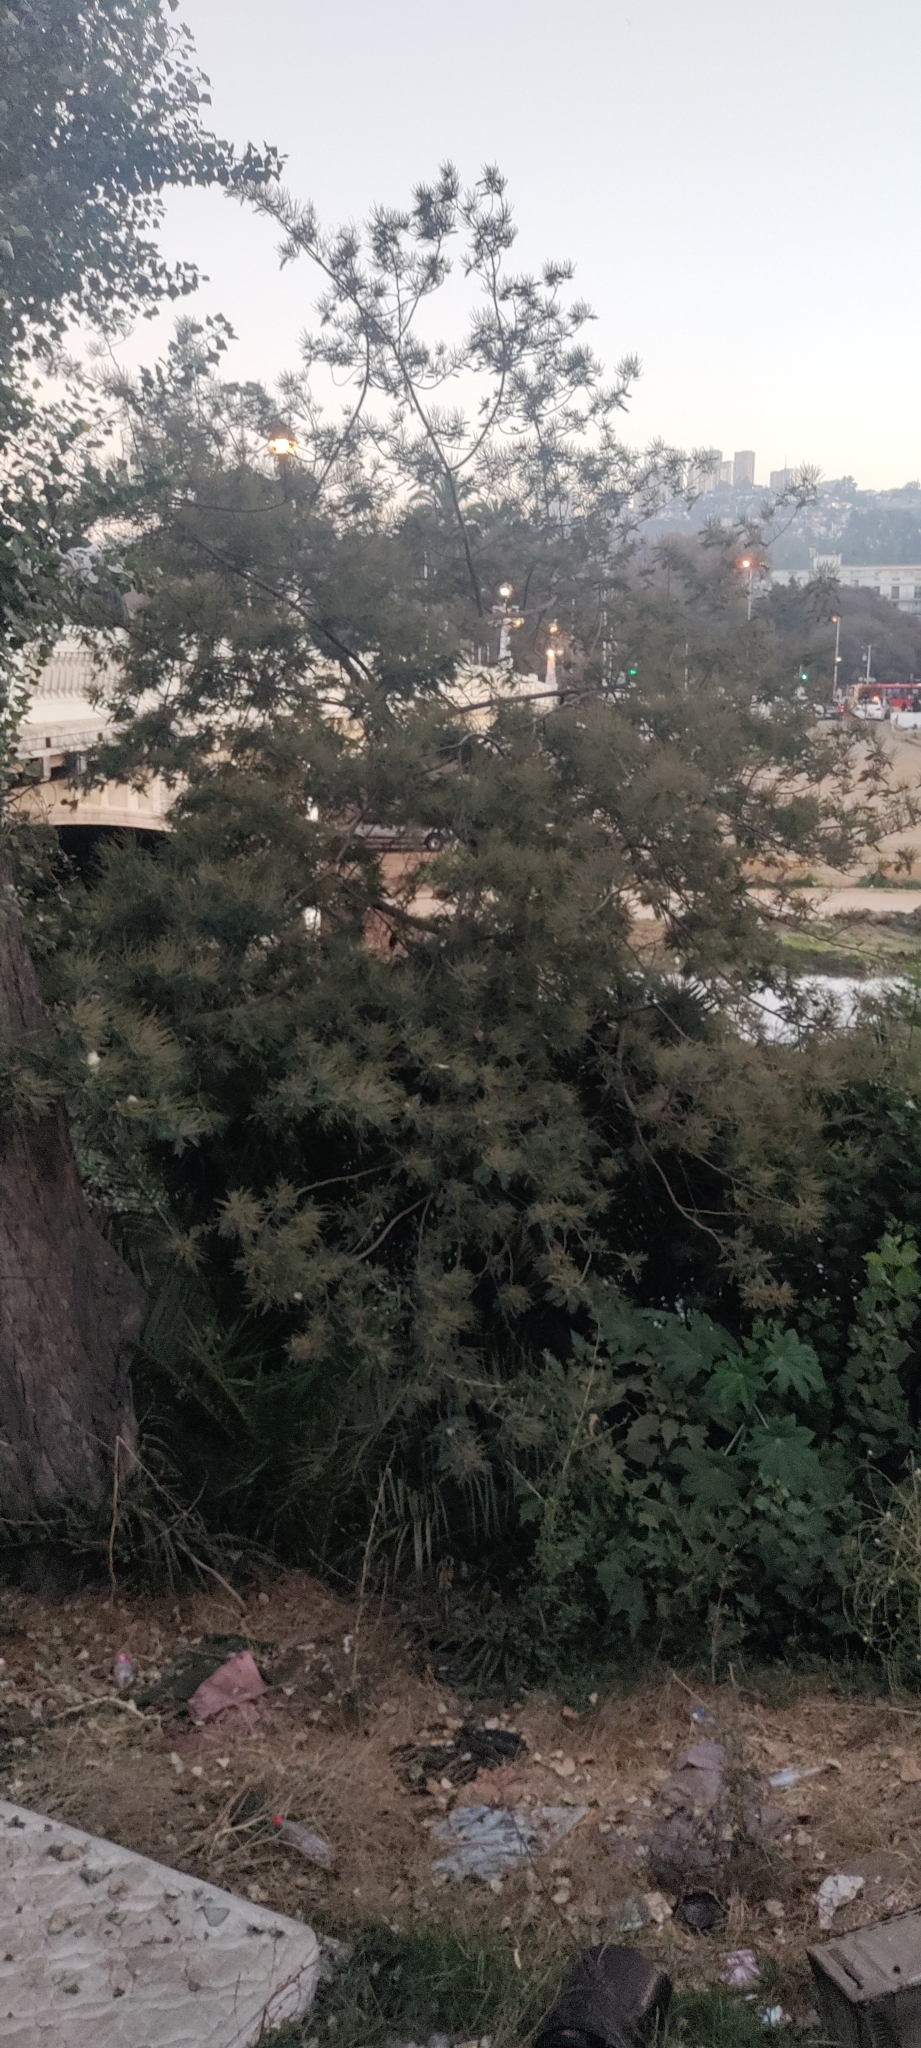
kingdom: Plantae
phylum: Tracheophyta
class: Magnoliopsida
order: Fabales
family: Fabaceae
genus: Acacia
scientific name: Acacia dealbata
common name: Silver wattle
